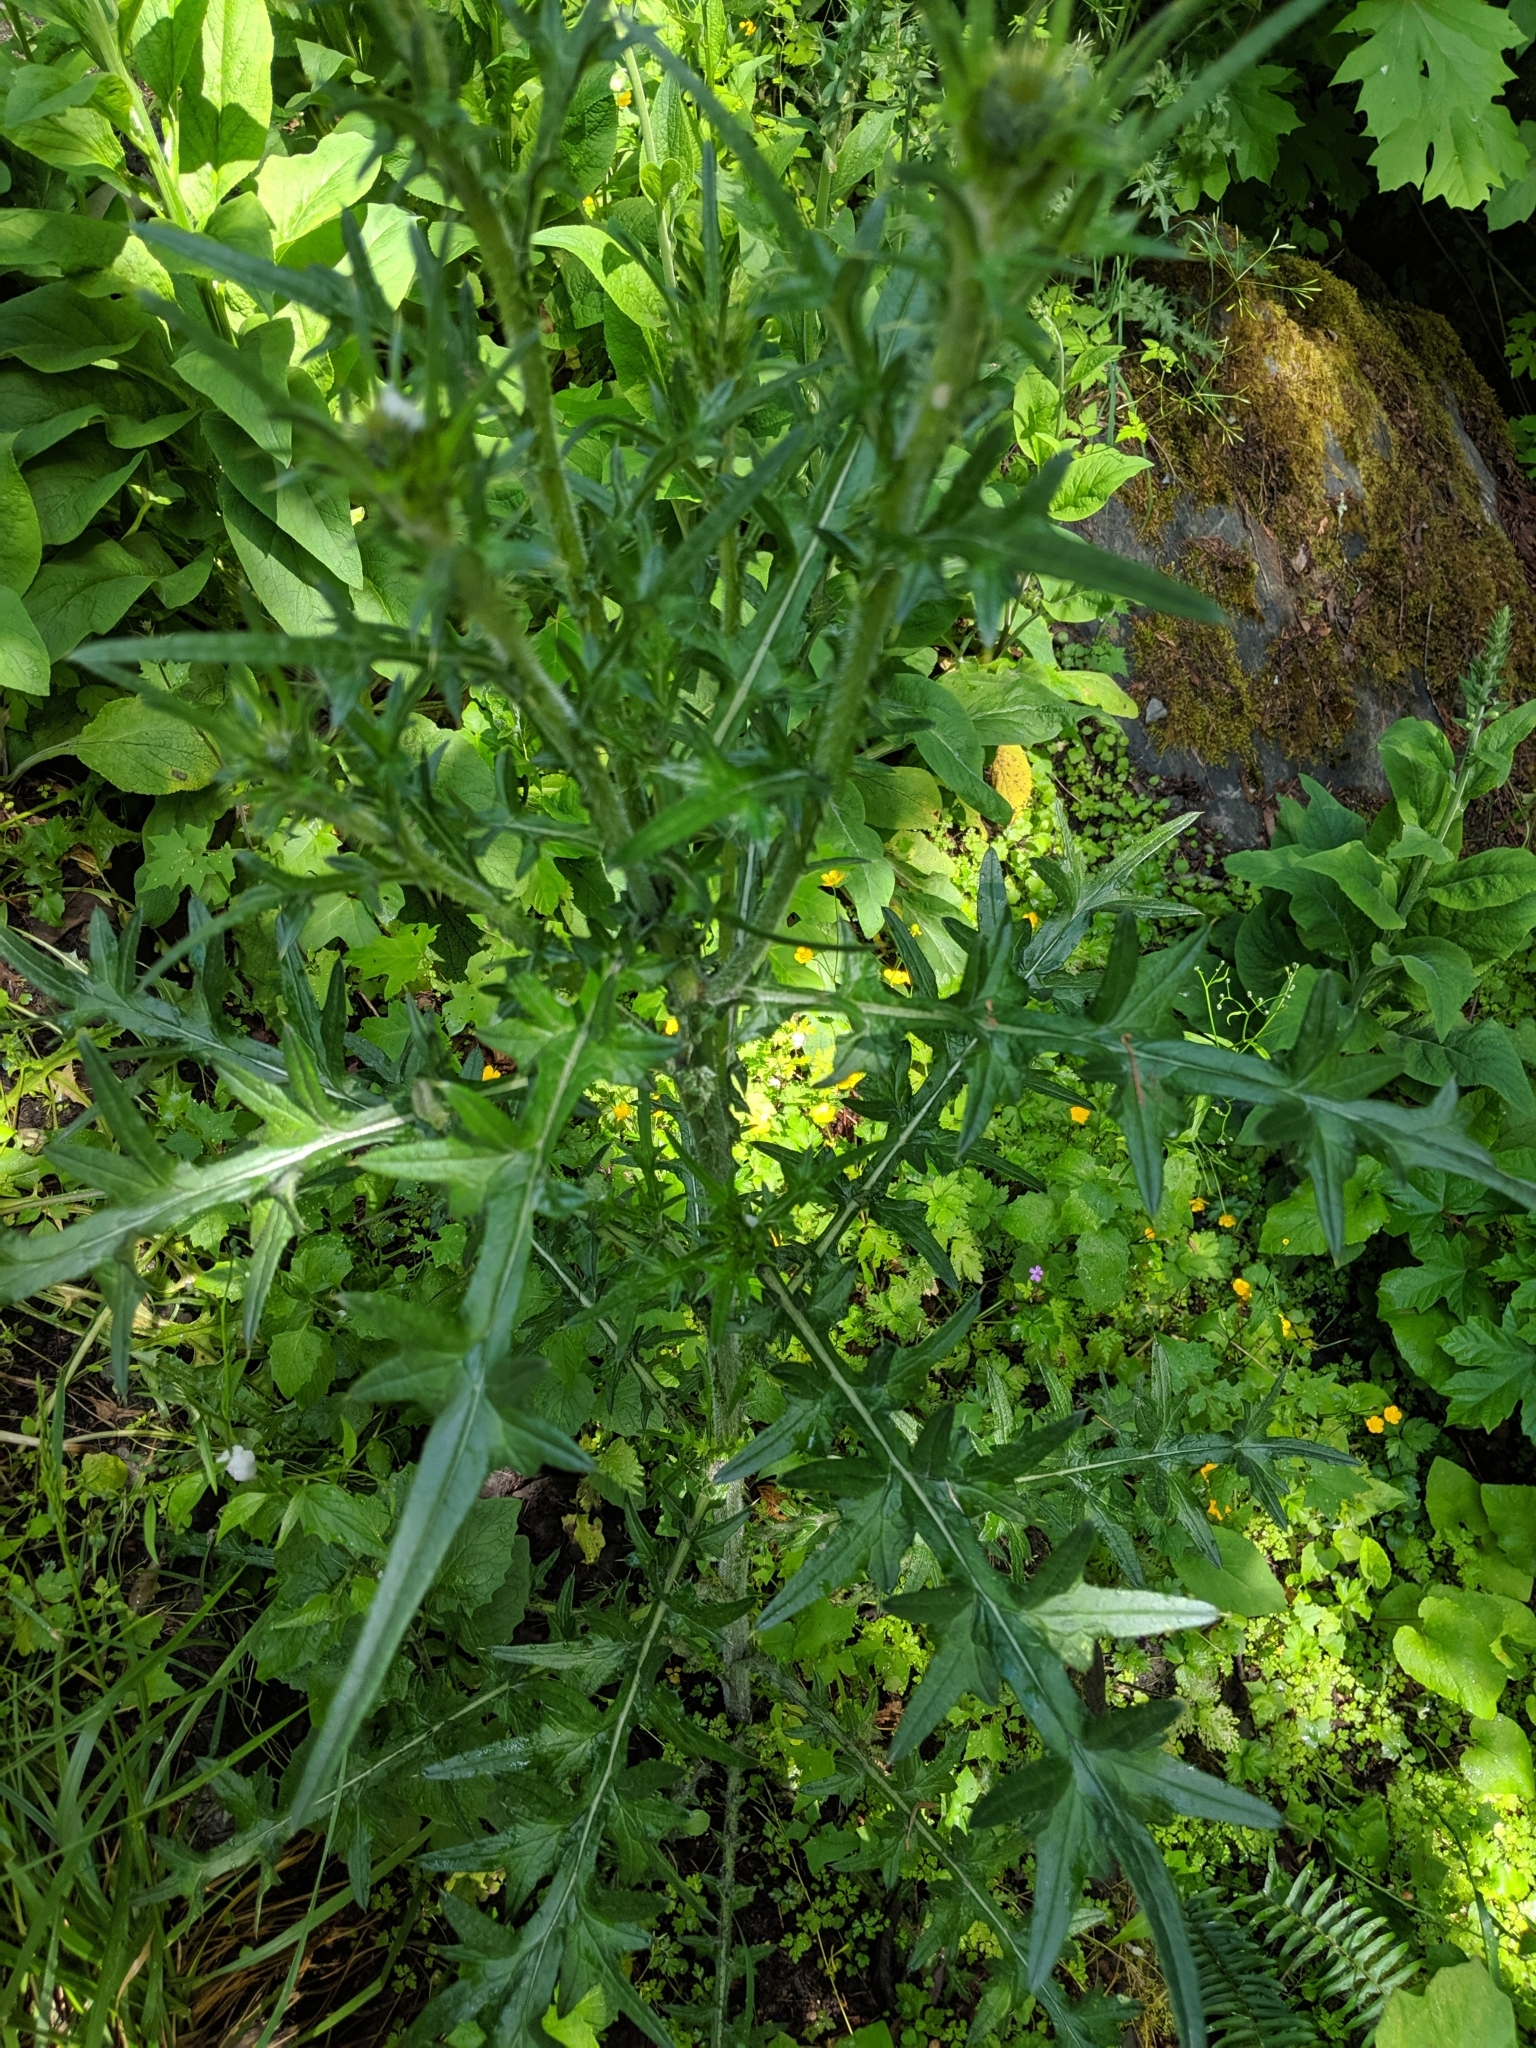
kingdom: Plantae
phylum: Tracheophyta
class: Magnoliopsida
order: Asterales
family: Asteraceae
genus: Cirsium
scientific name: Cirsium vulgare
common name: Bull thistle
